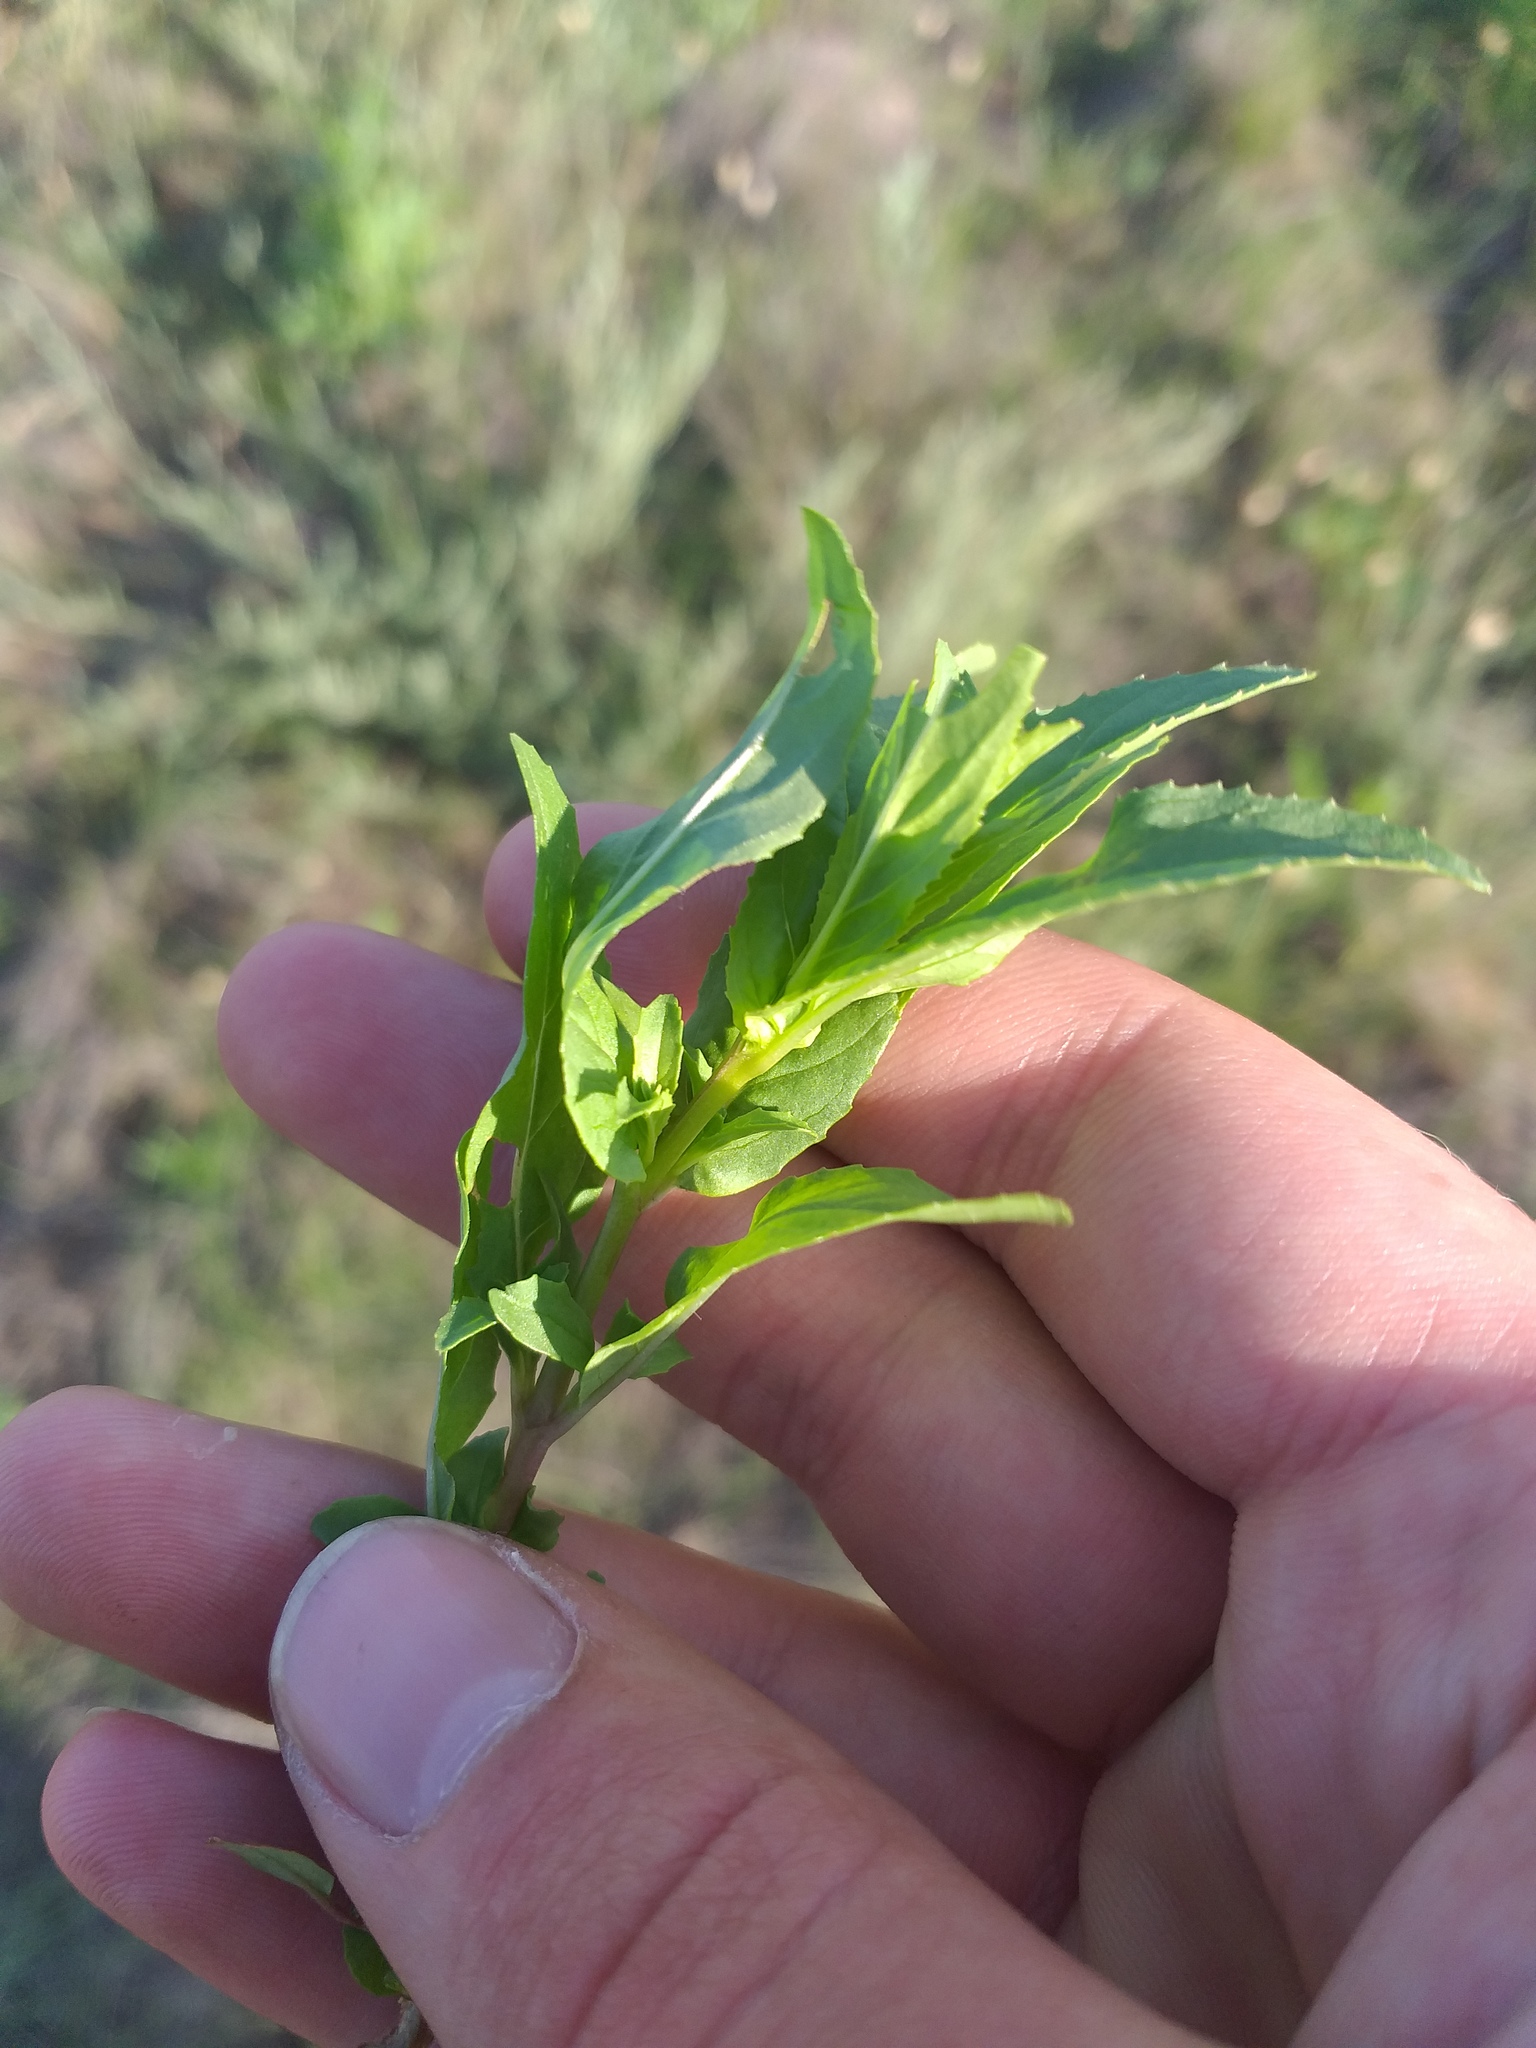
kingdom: Plantae
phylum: Tracheophyta
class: Magnoliopsida
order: Myrtales
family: Onagraceae
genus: Epilobium
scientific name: Epilobium tetragonum
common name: Square-stemmed willowherb
